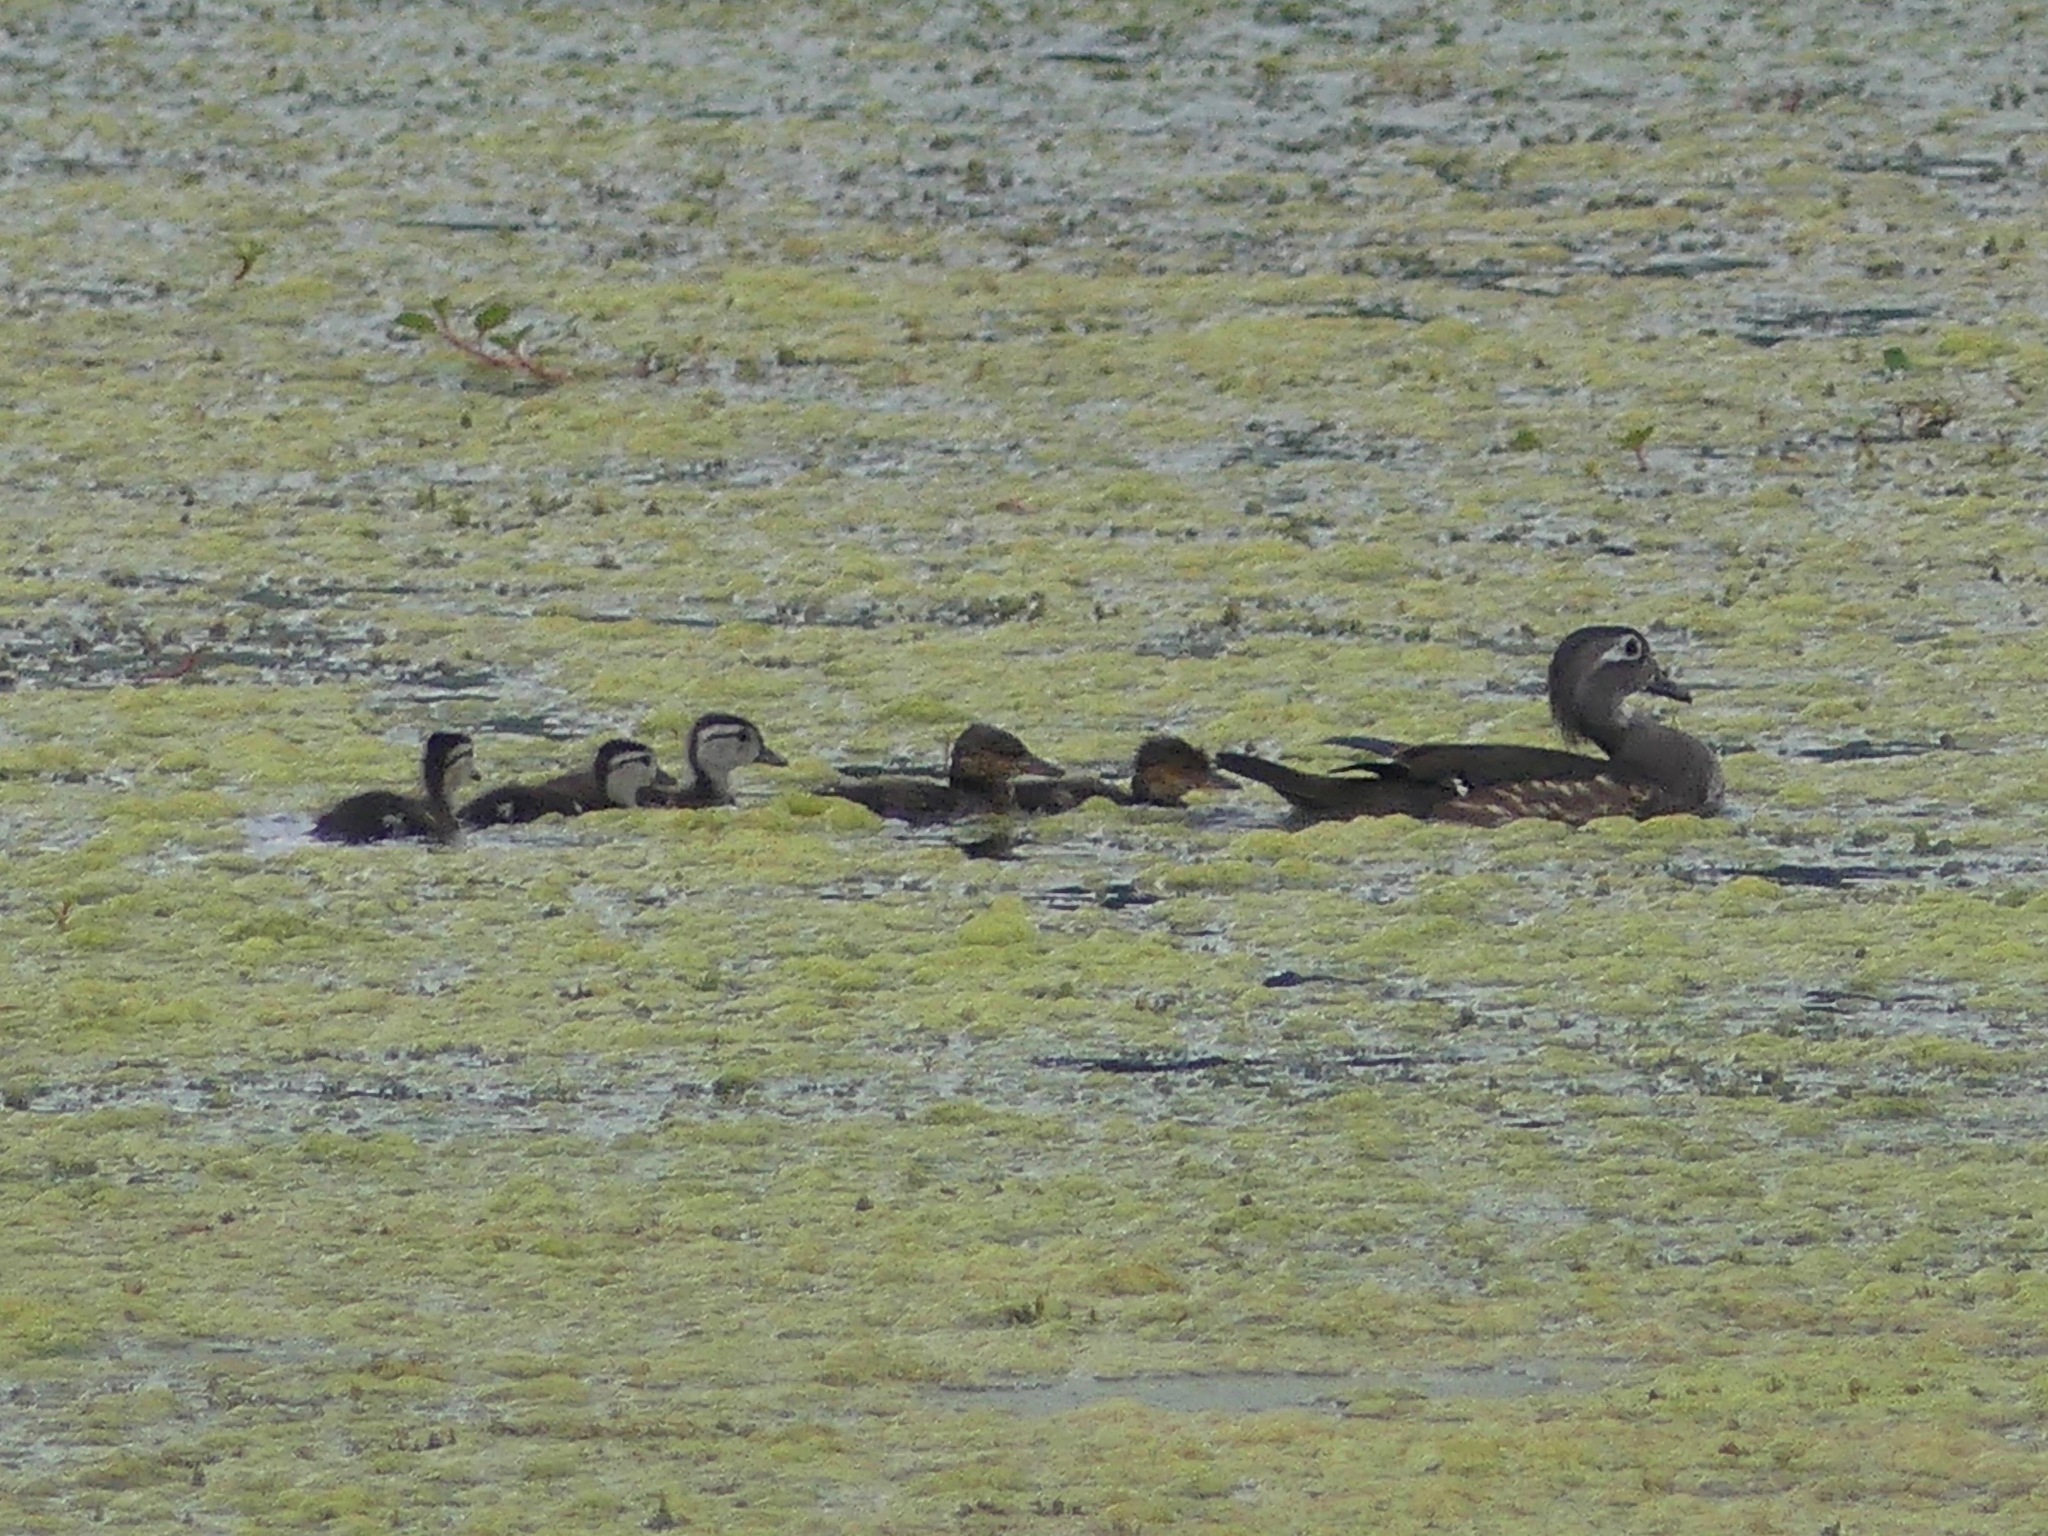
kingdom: Animalia
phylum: Chordata
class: Aves
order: Anseriformes
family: Anatidae
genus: Lophodytes
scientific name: Lophodytes cucullatus
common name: Hooded merganser
